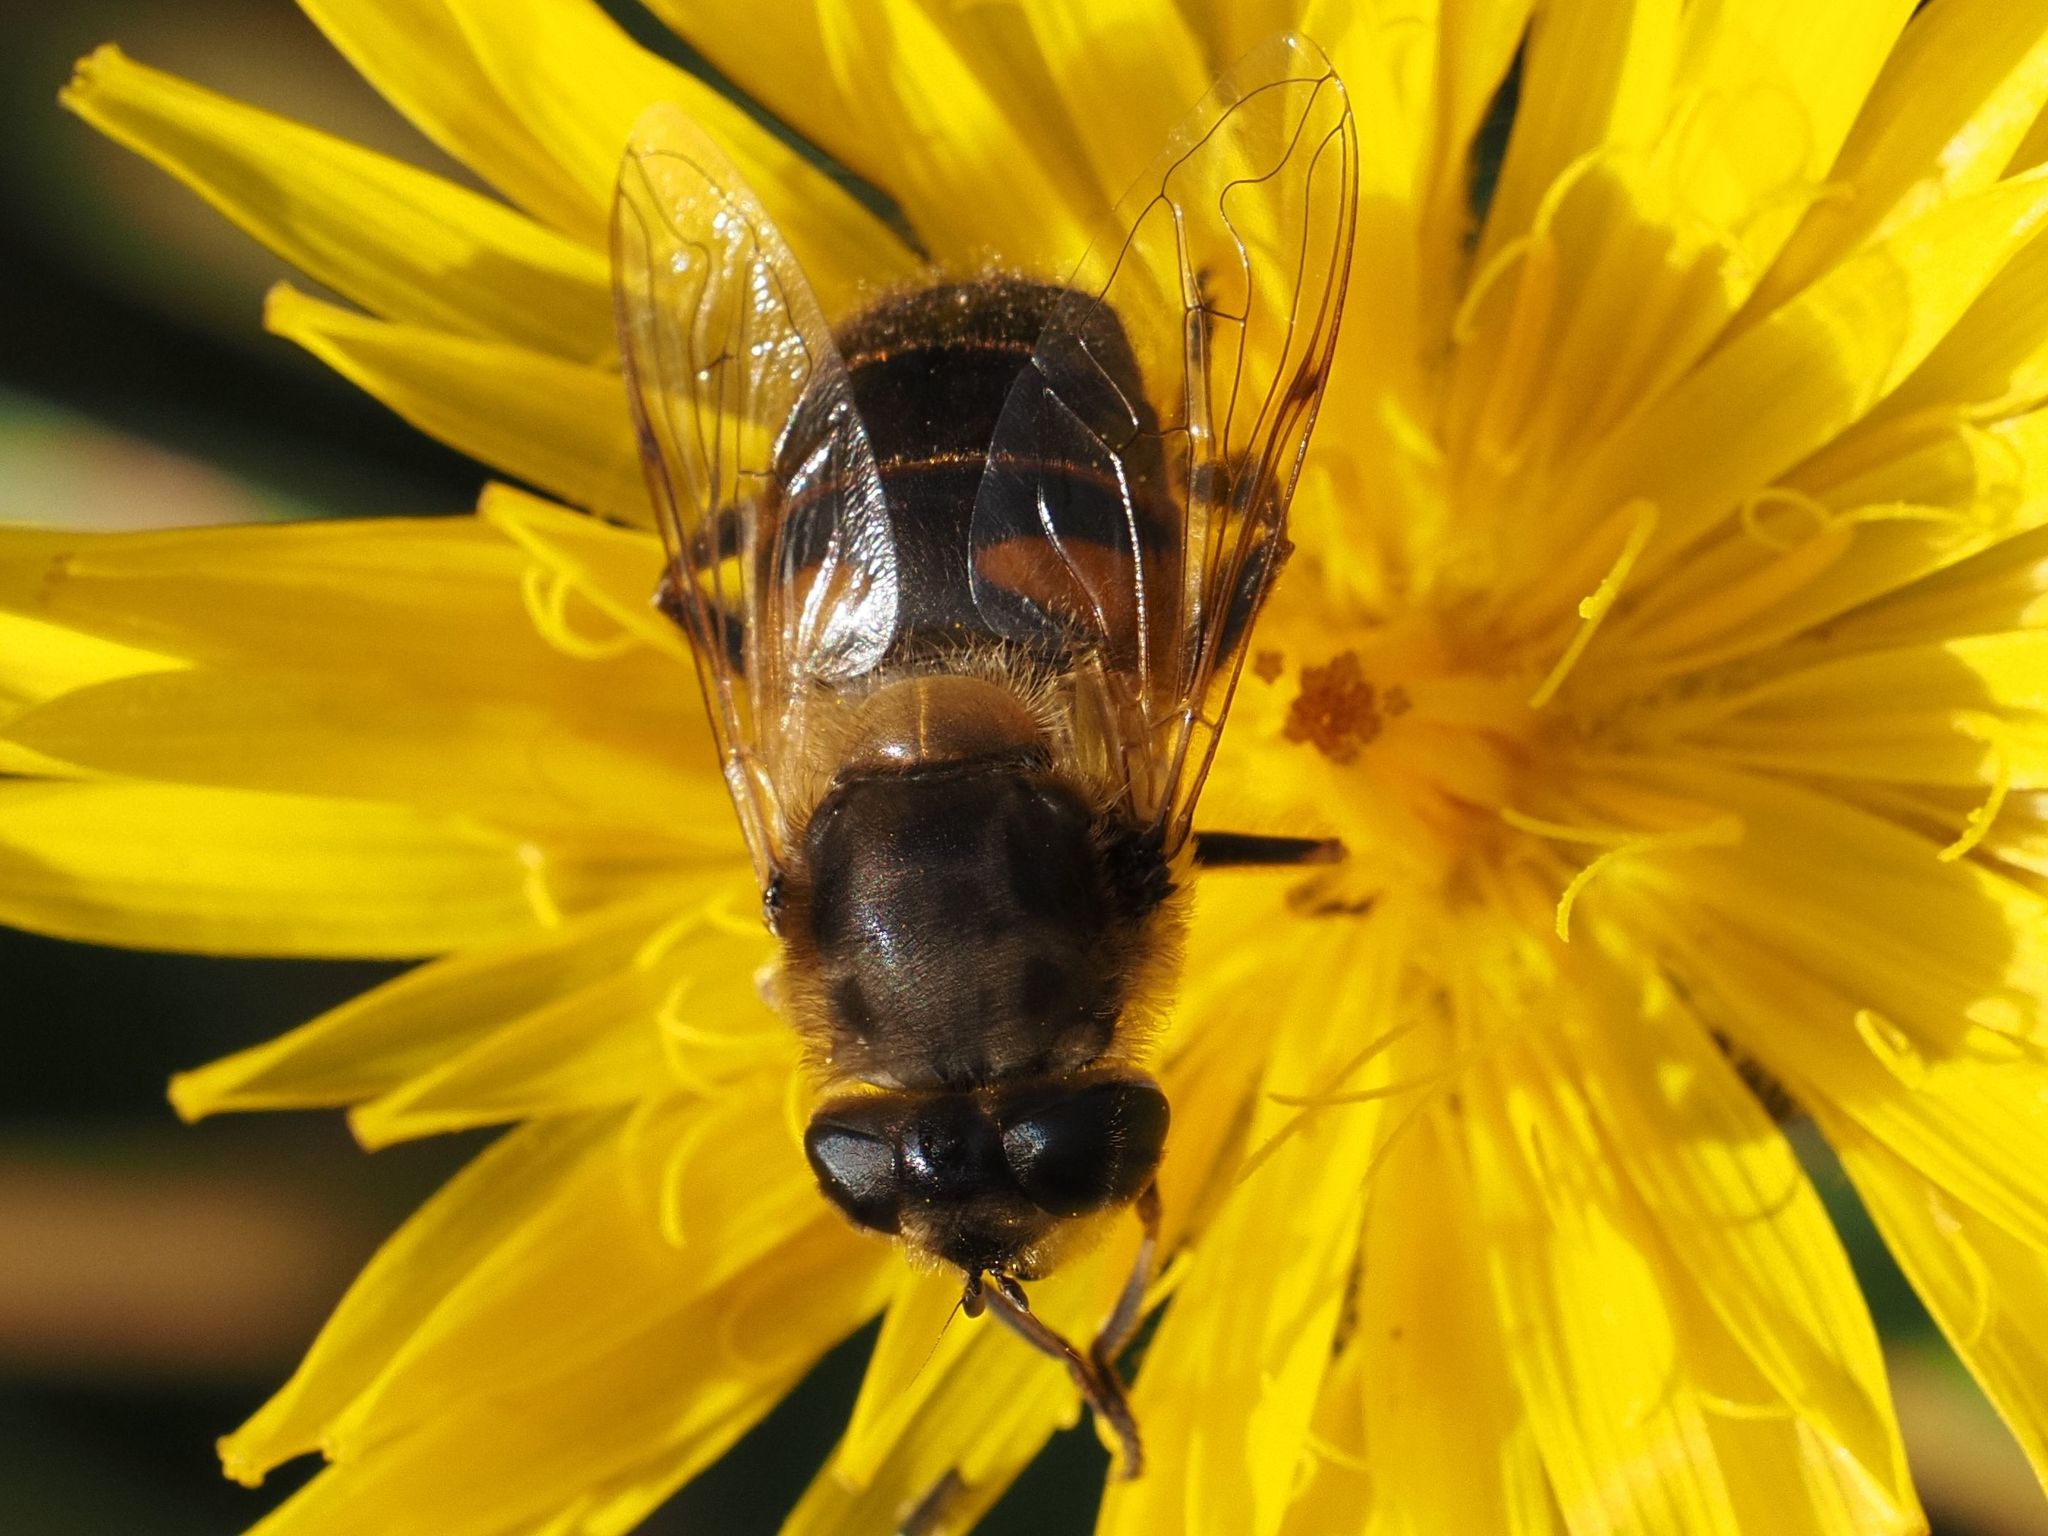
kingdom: Animalia
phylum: Arthropoda
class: Insecta
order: Diptera
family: Syrphidae
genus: Eristalis
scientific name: Eristalis tenax
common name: Drone fly
